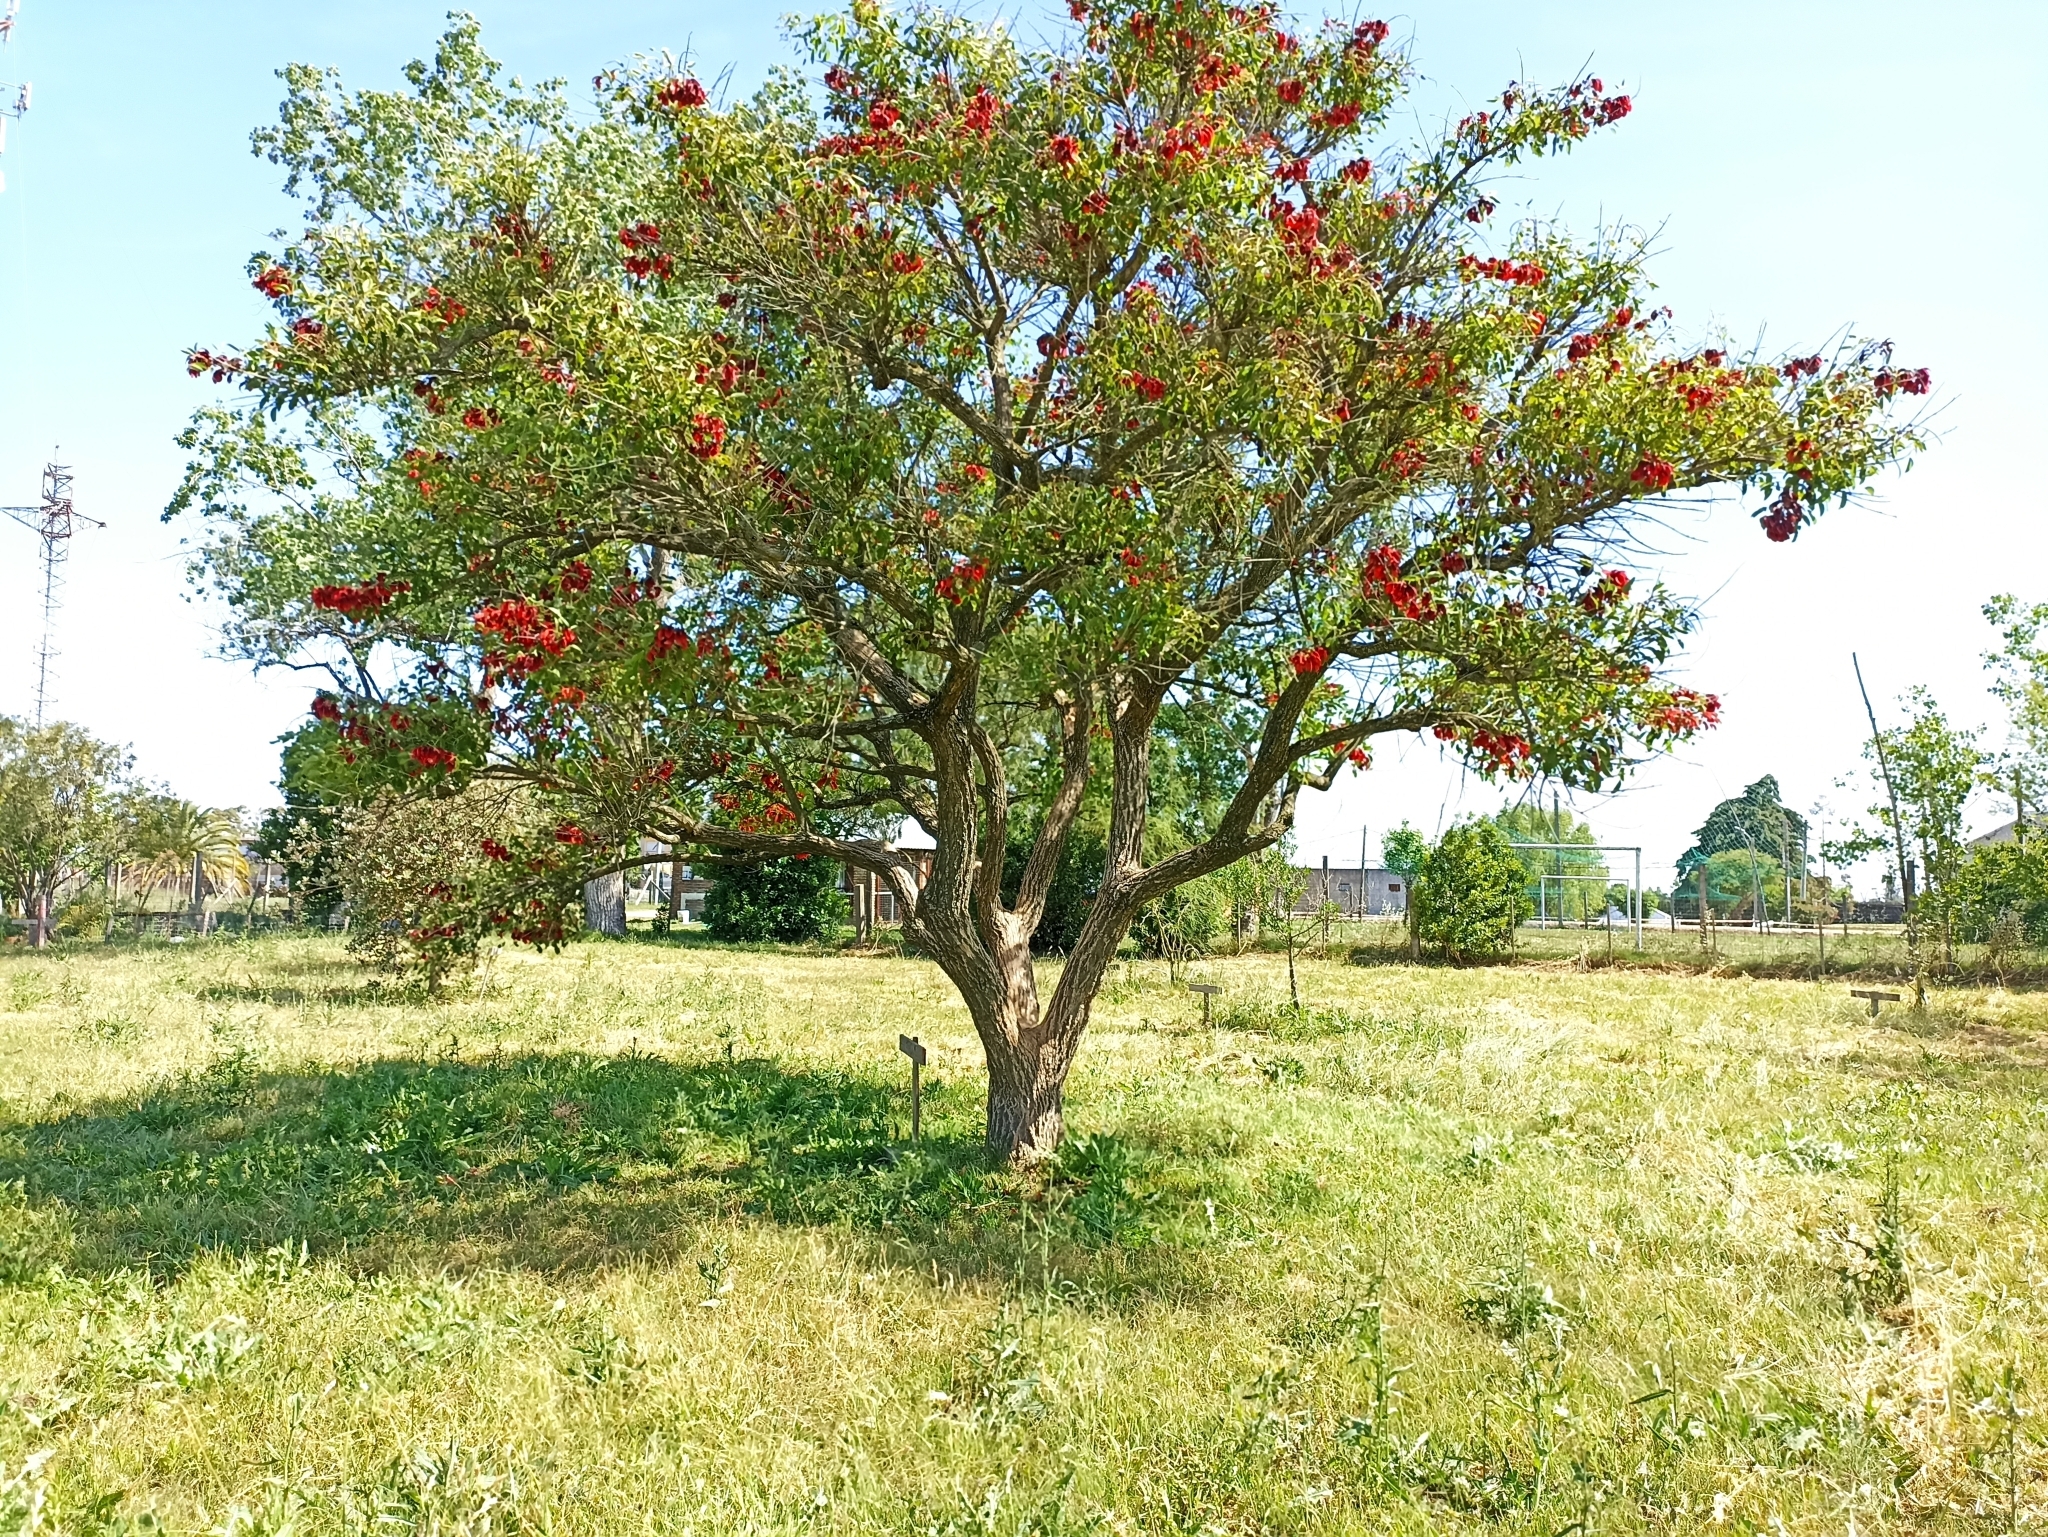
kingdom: Plantae
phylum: Tracheophyta
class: Magnoliopsida
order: Fabales
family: Fabaceae
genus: Erythrina
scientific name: Erythrina crista-galli
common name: Cockspur coral tree
